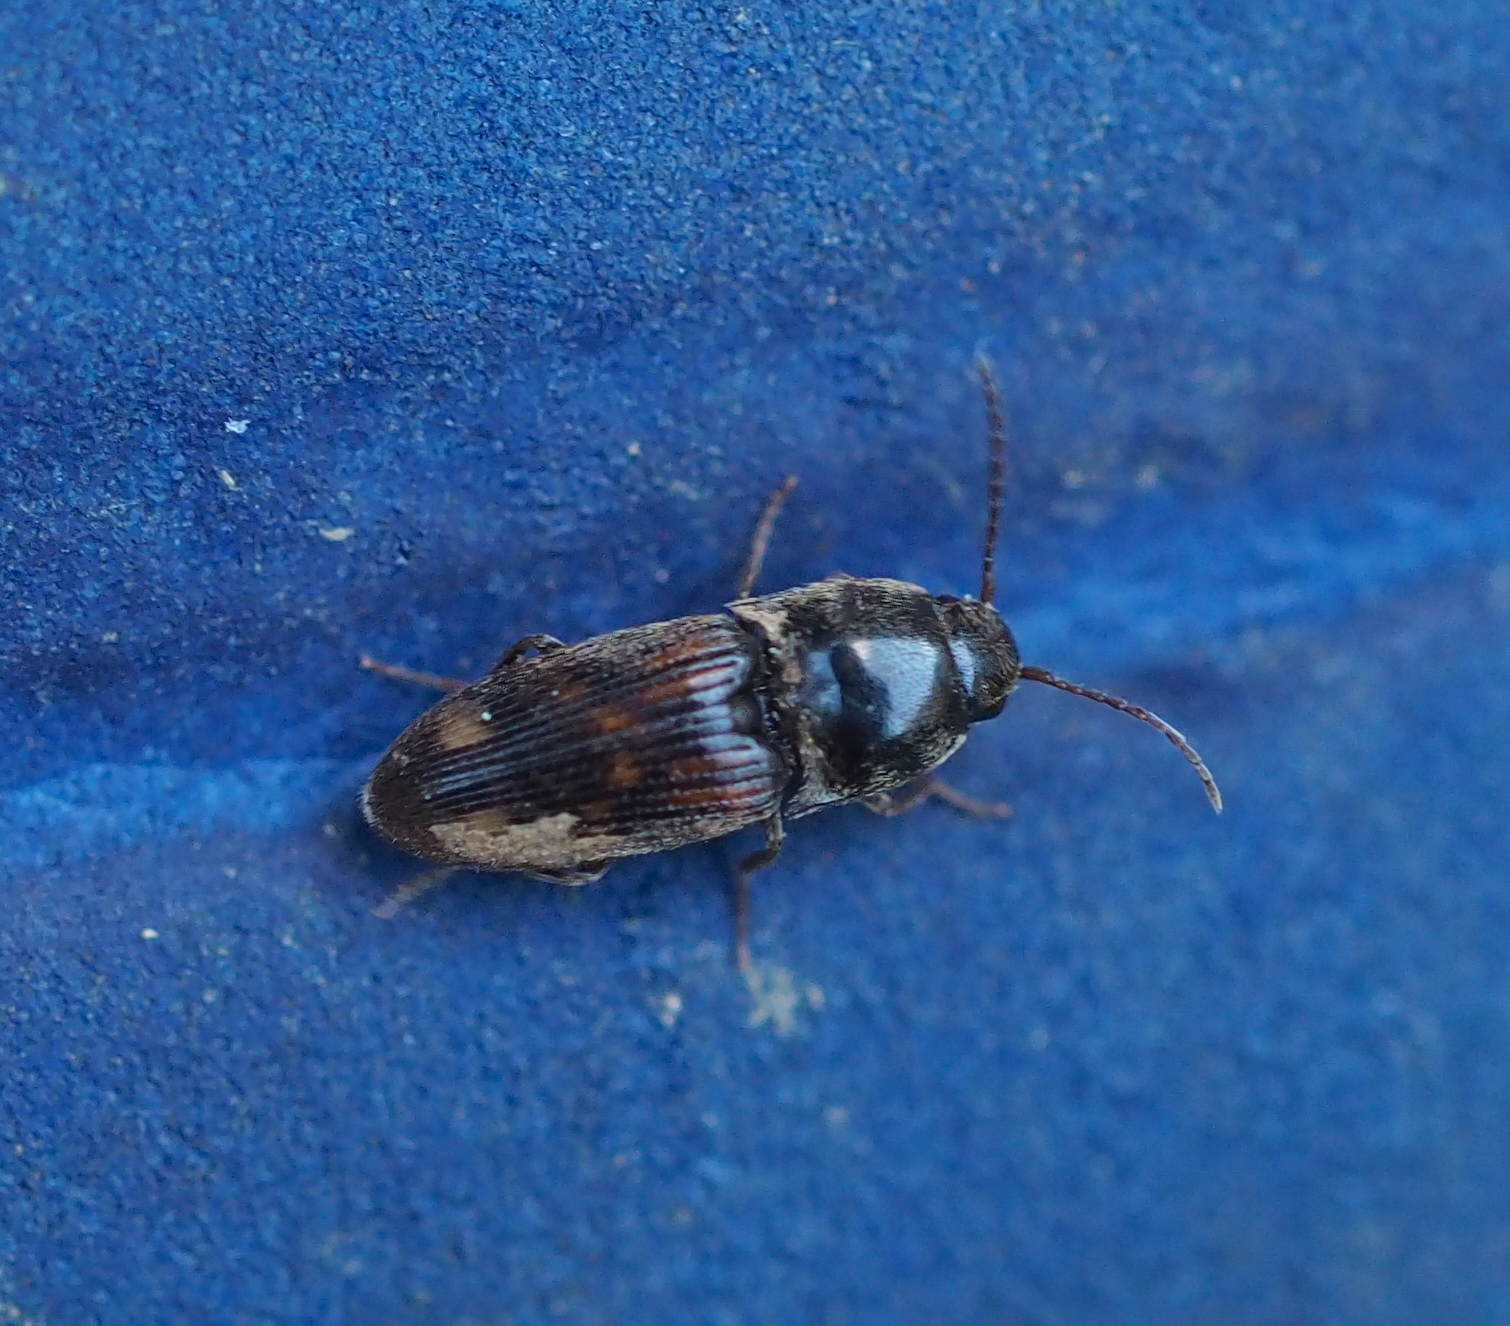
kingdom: Animalia
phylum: Arthropoda
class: Insecta
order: Coleoptera
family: Elateridae
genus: Drasterius
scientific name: Drasterius bimaculatus
